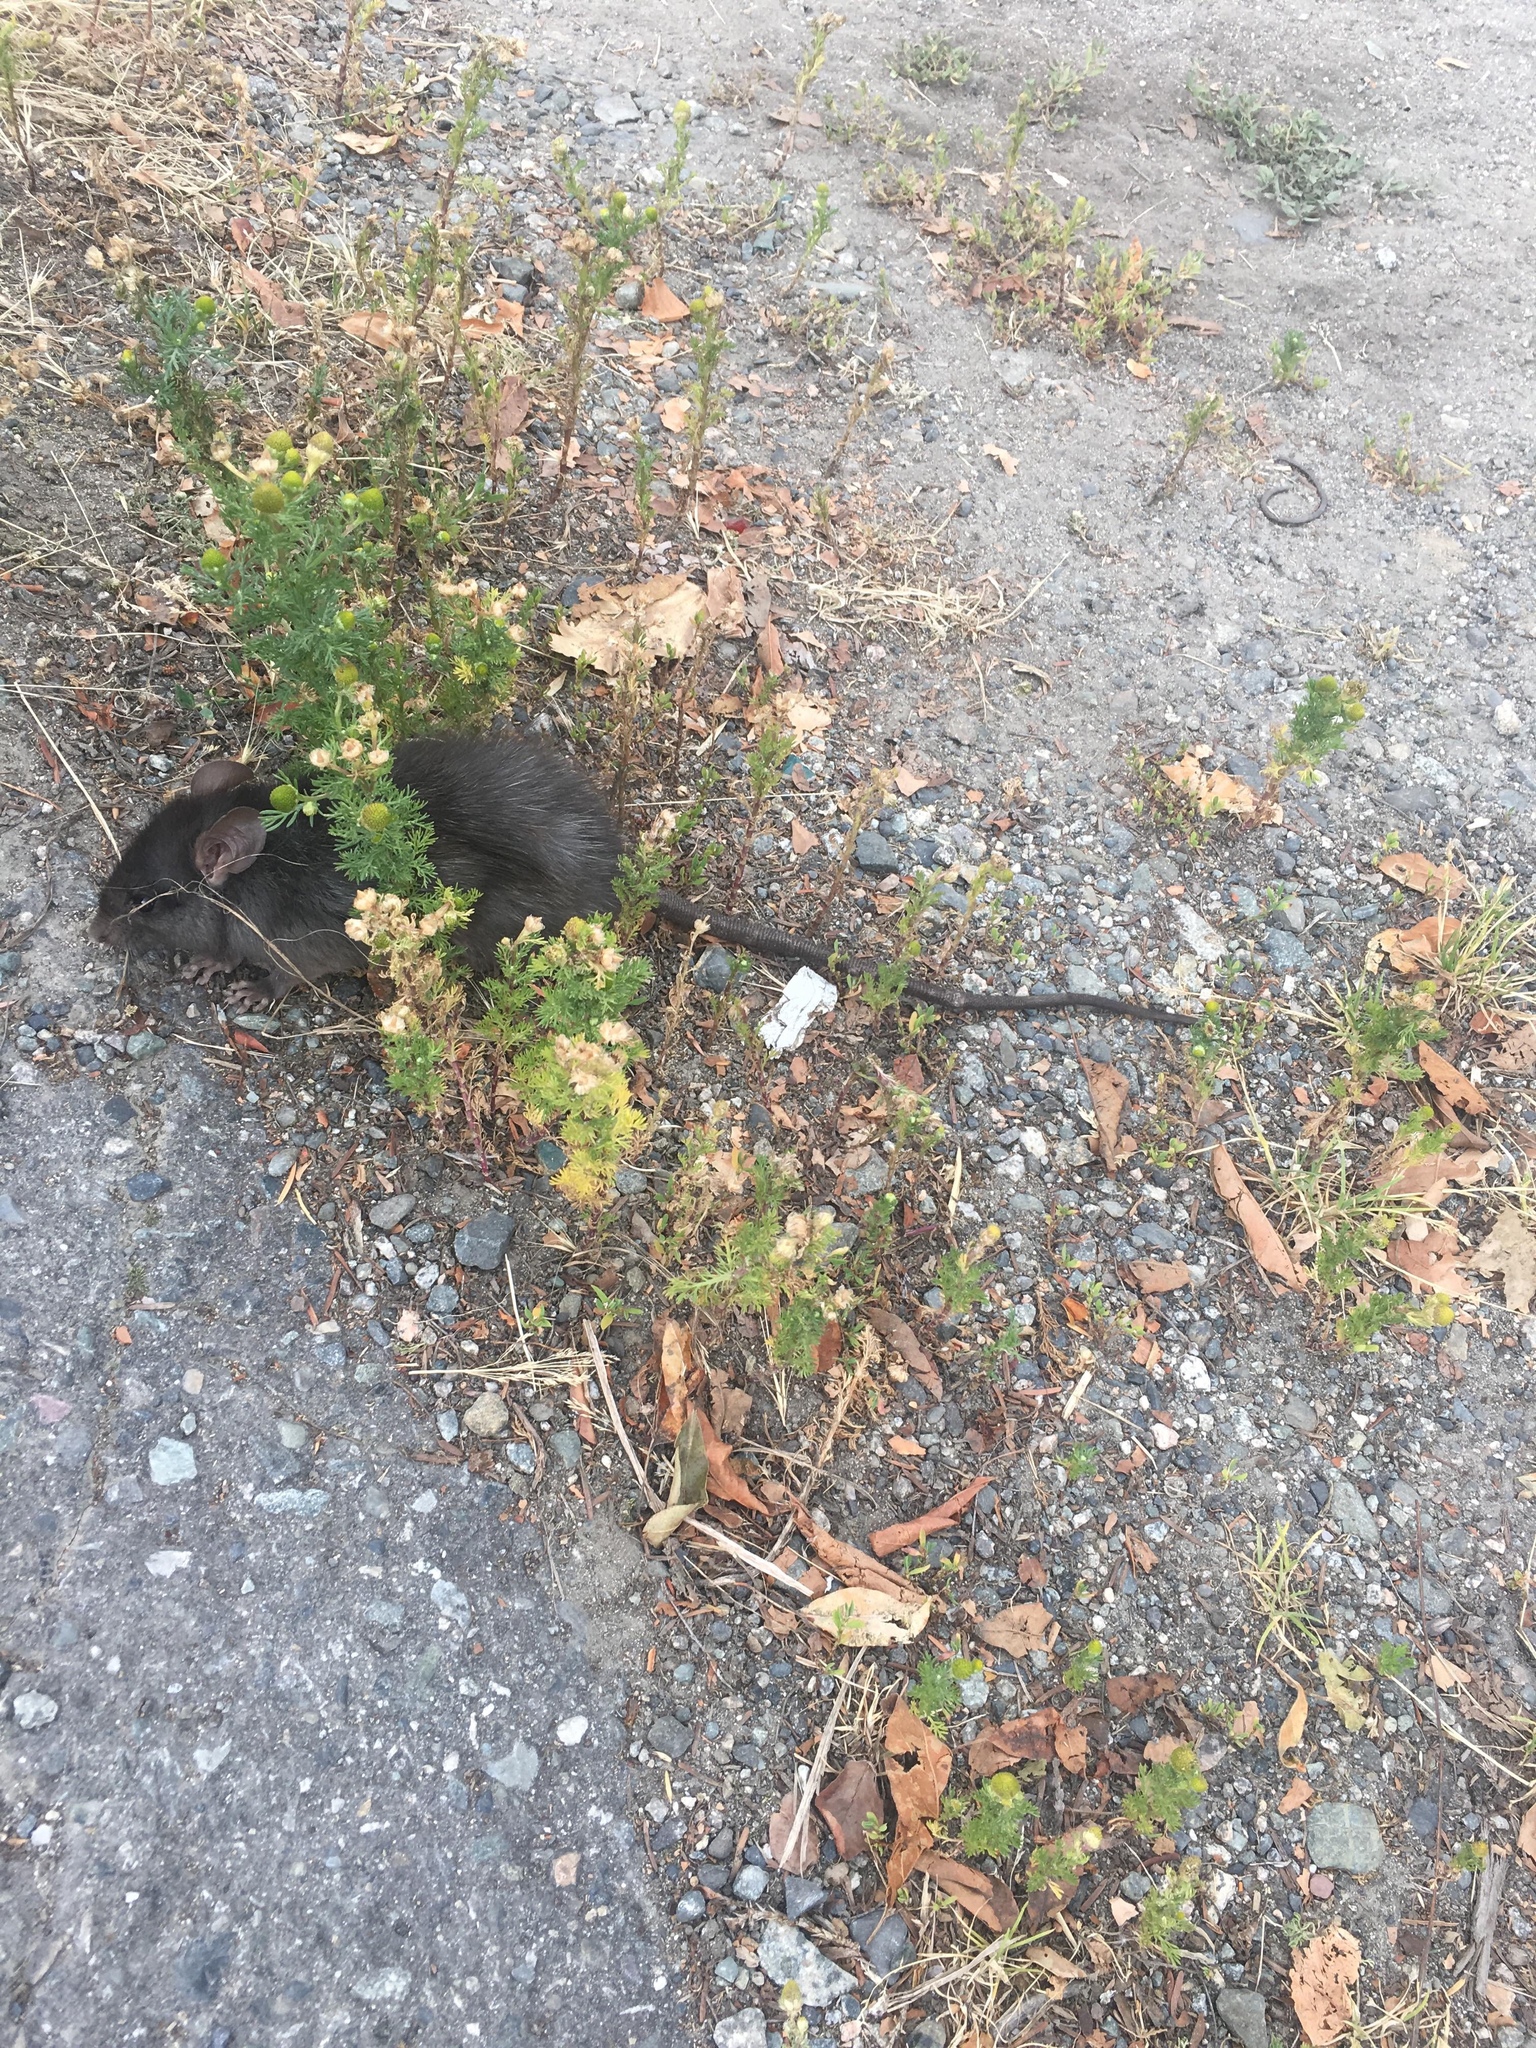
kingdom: Animalia
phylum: Chordata
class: Mammalia
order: Rodentia
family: Cricetidae
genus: Microtus
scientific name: Microtus pennsylvanicus
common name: Meadow vole
